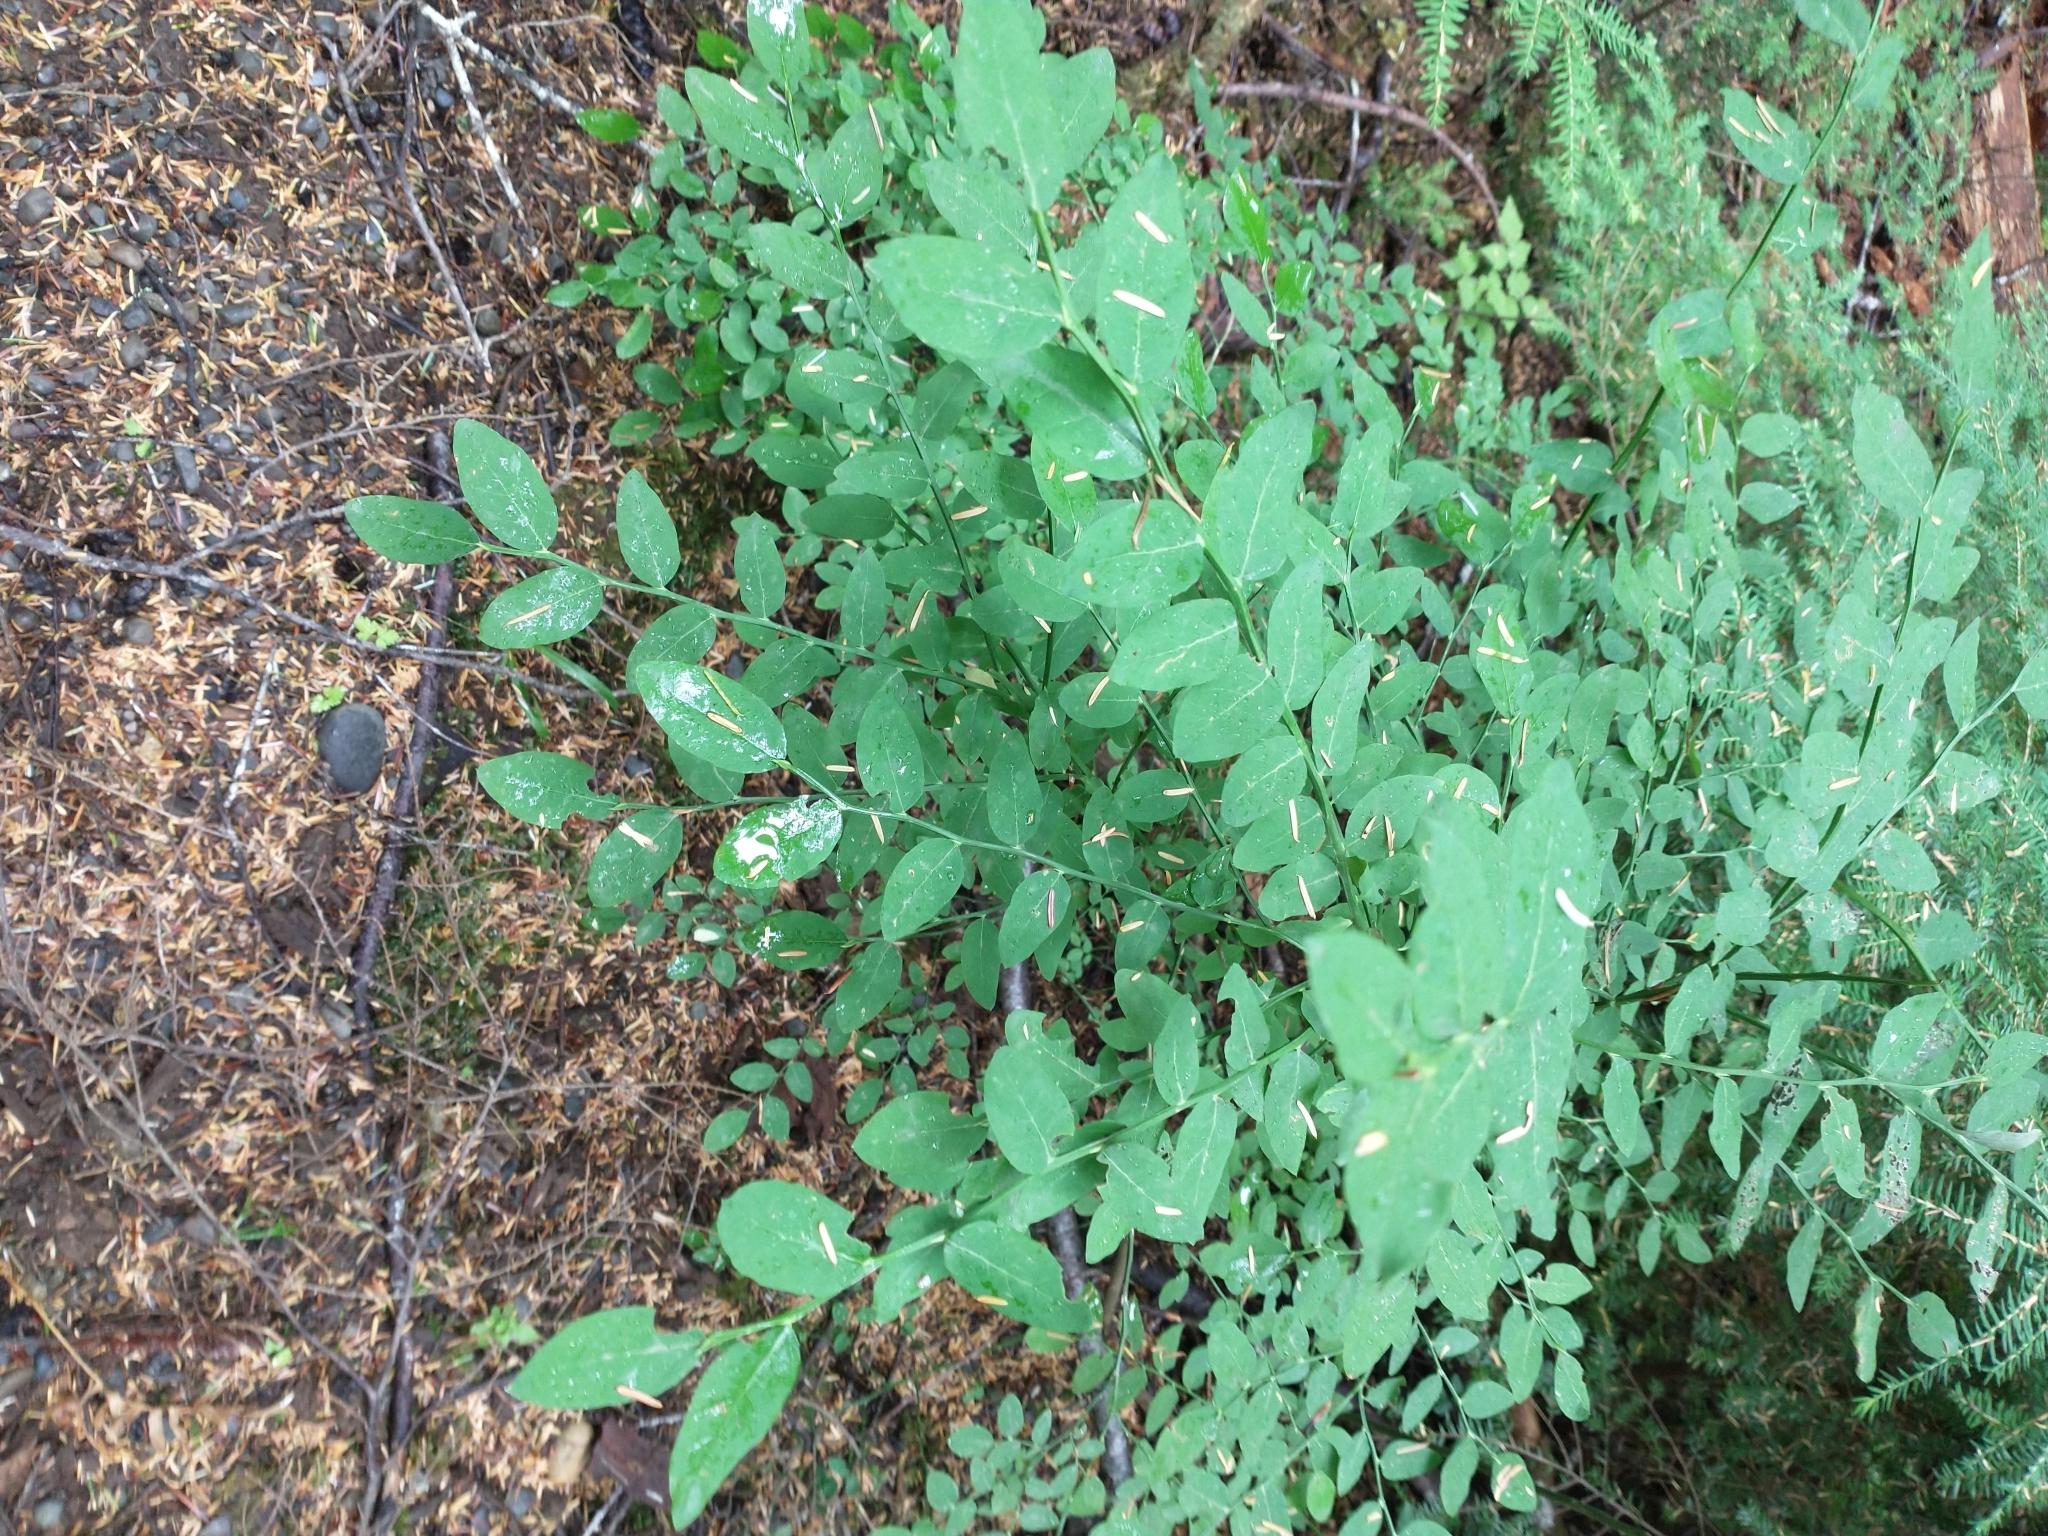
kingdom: Plantae
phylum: Tracheophyta
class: Magnoliopsida
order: Ericales
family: Ericaceae
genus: Vaccinium
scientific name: Vaccinium parvifolium
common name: Red-huckleberry
